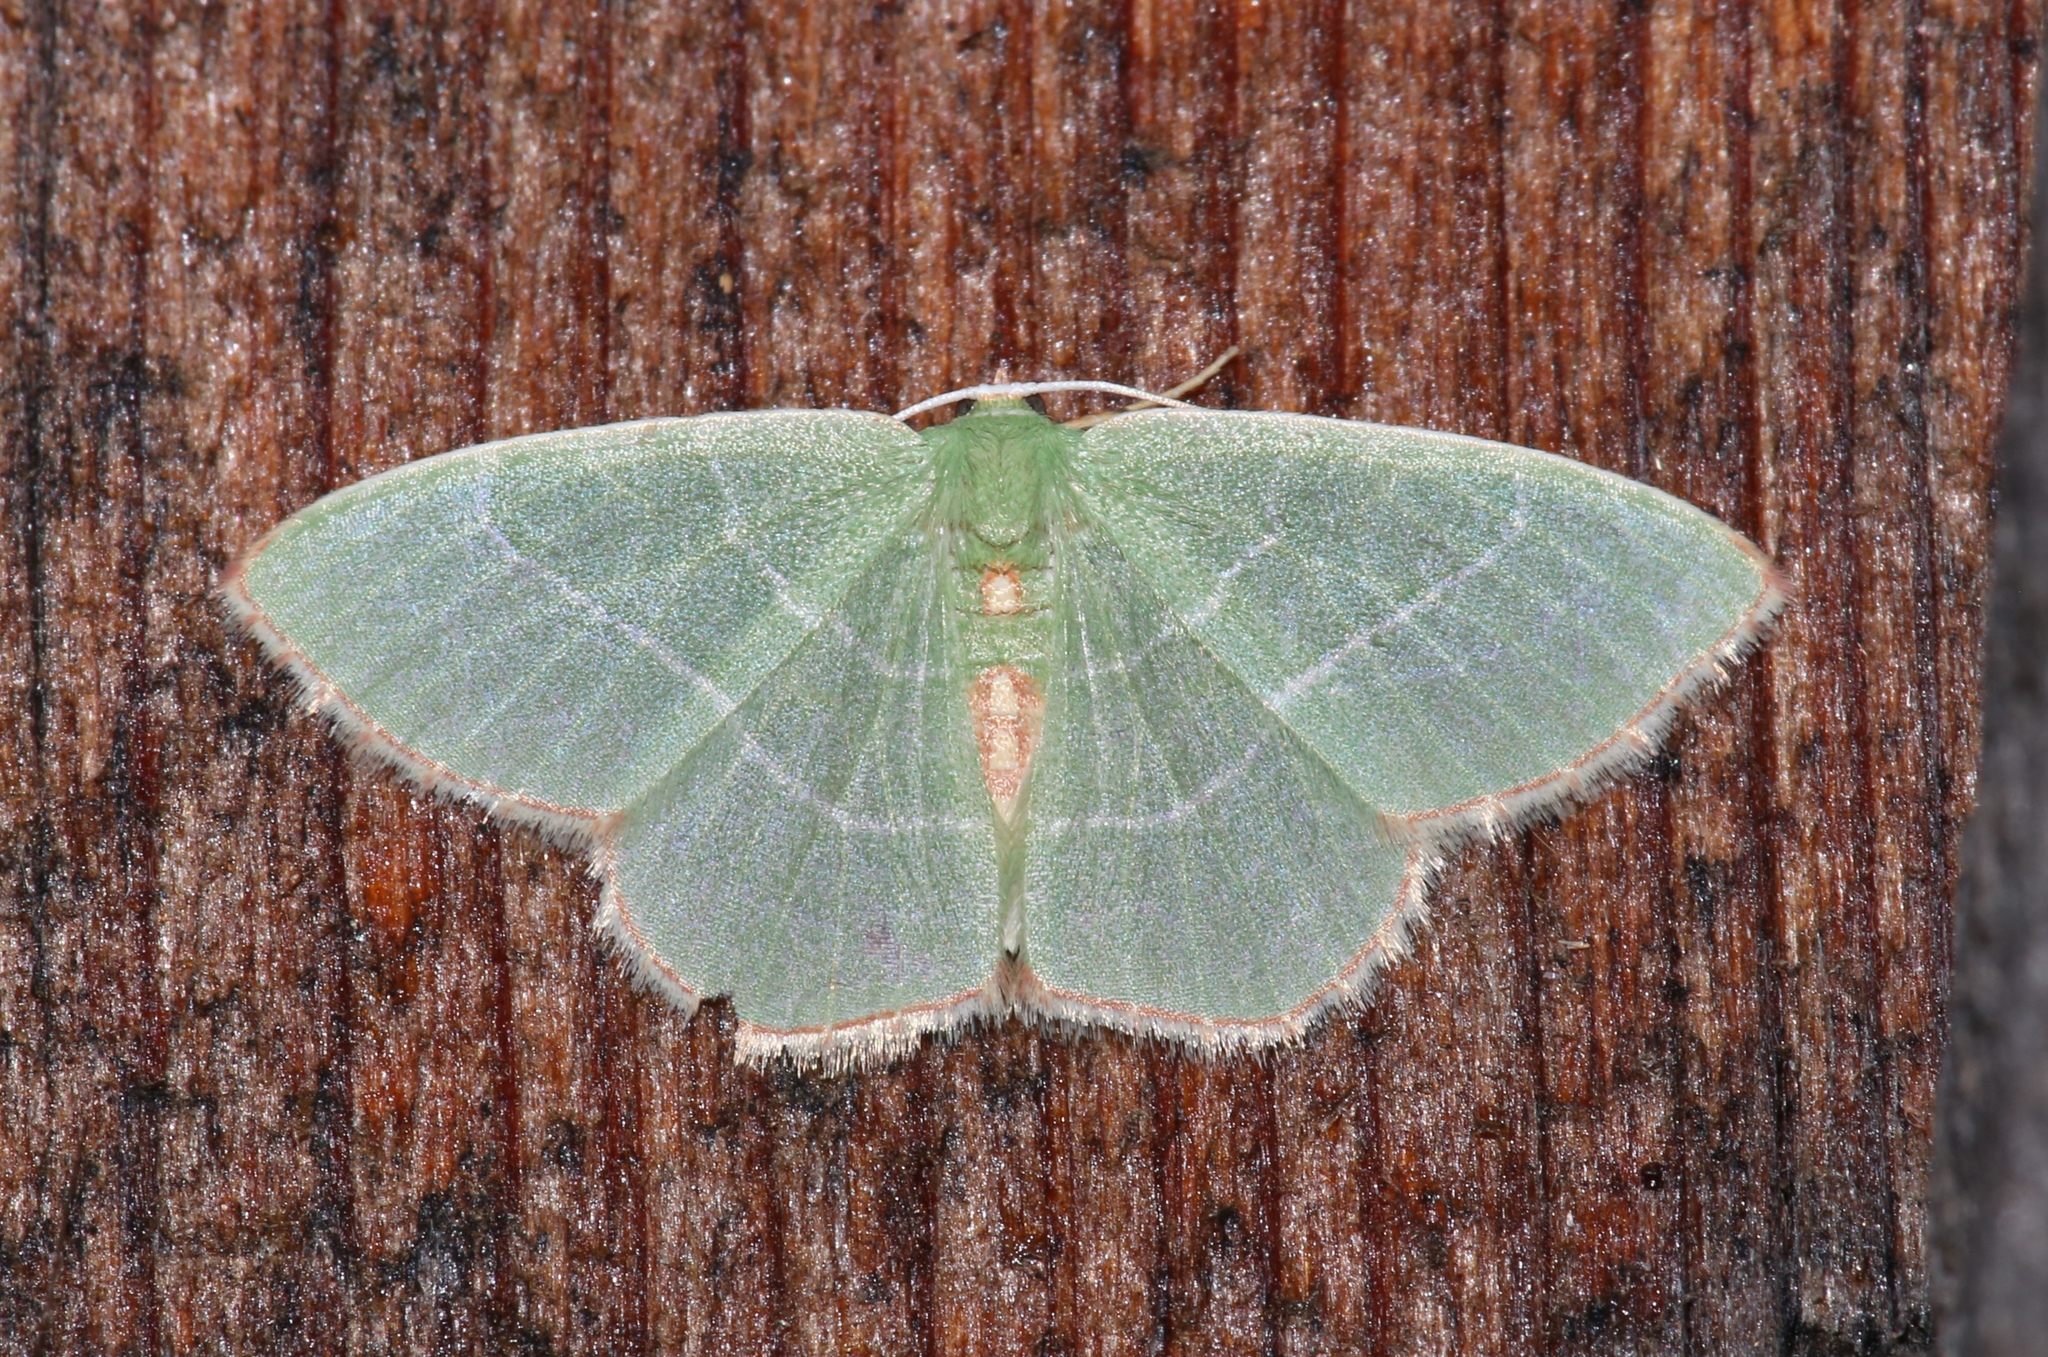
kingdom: Animalia
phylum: Arthropoda
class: Insecta
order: Lepidoptera
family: Geometridae
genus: Nemoria
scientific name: Nemoria bistriaria
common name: Red-fringed emerald
